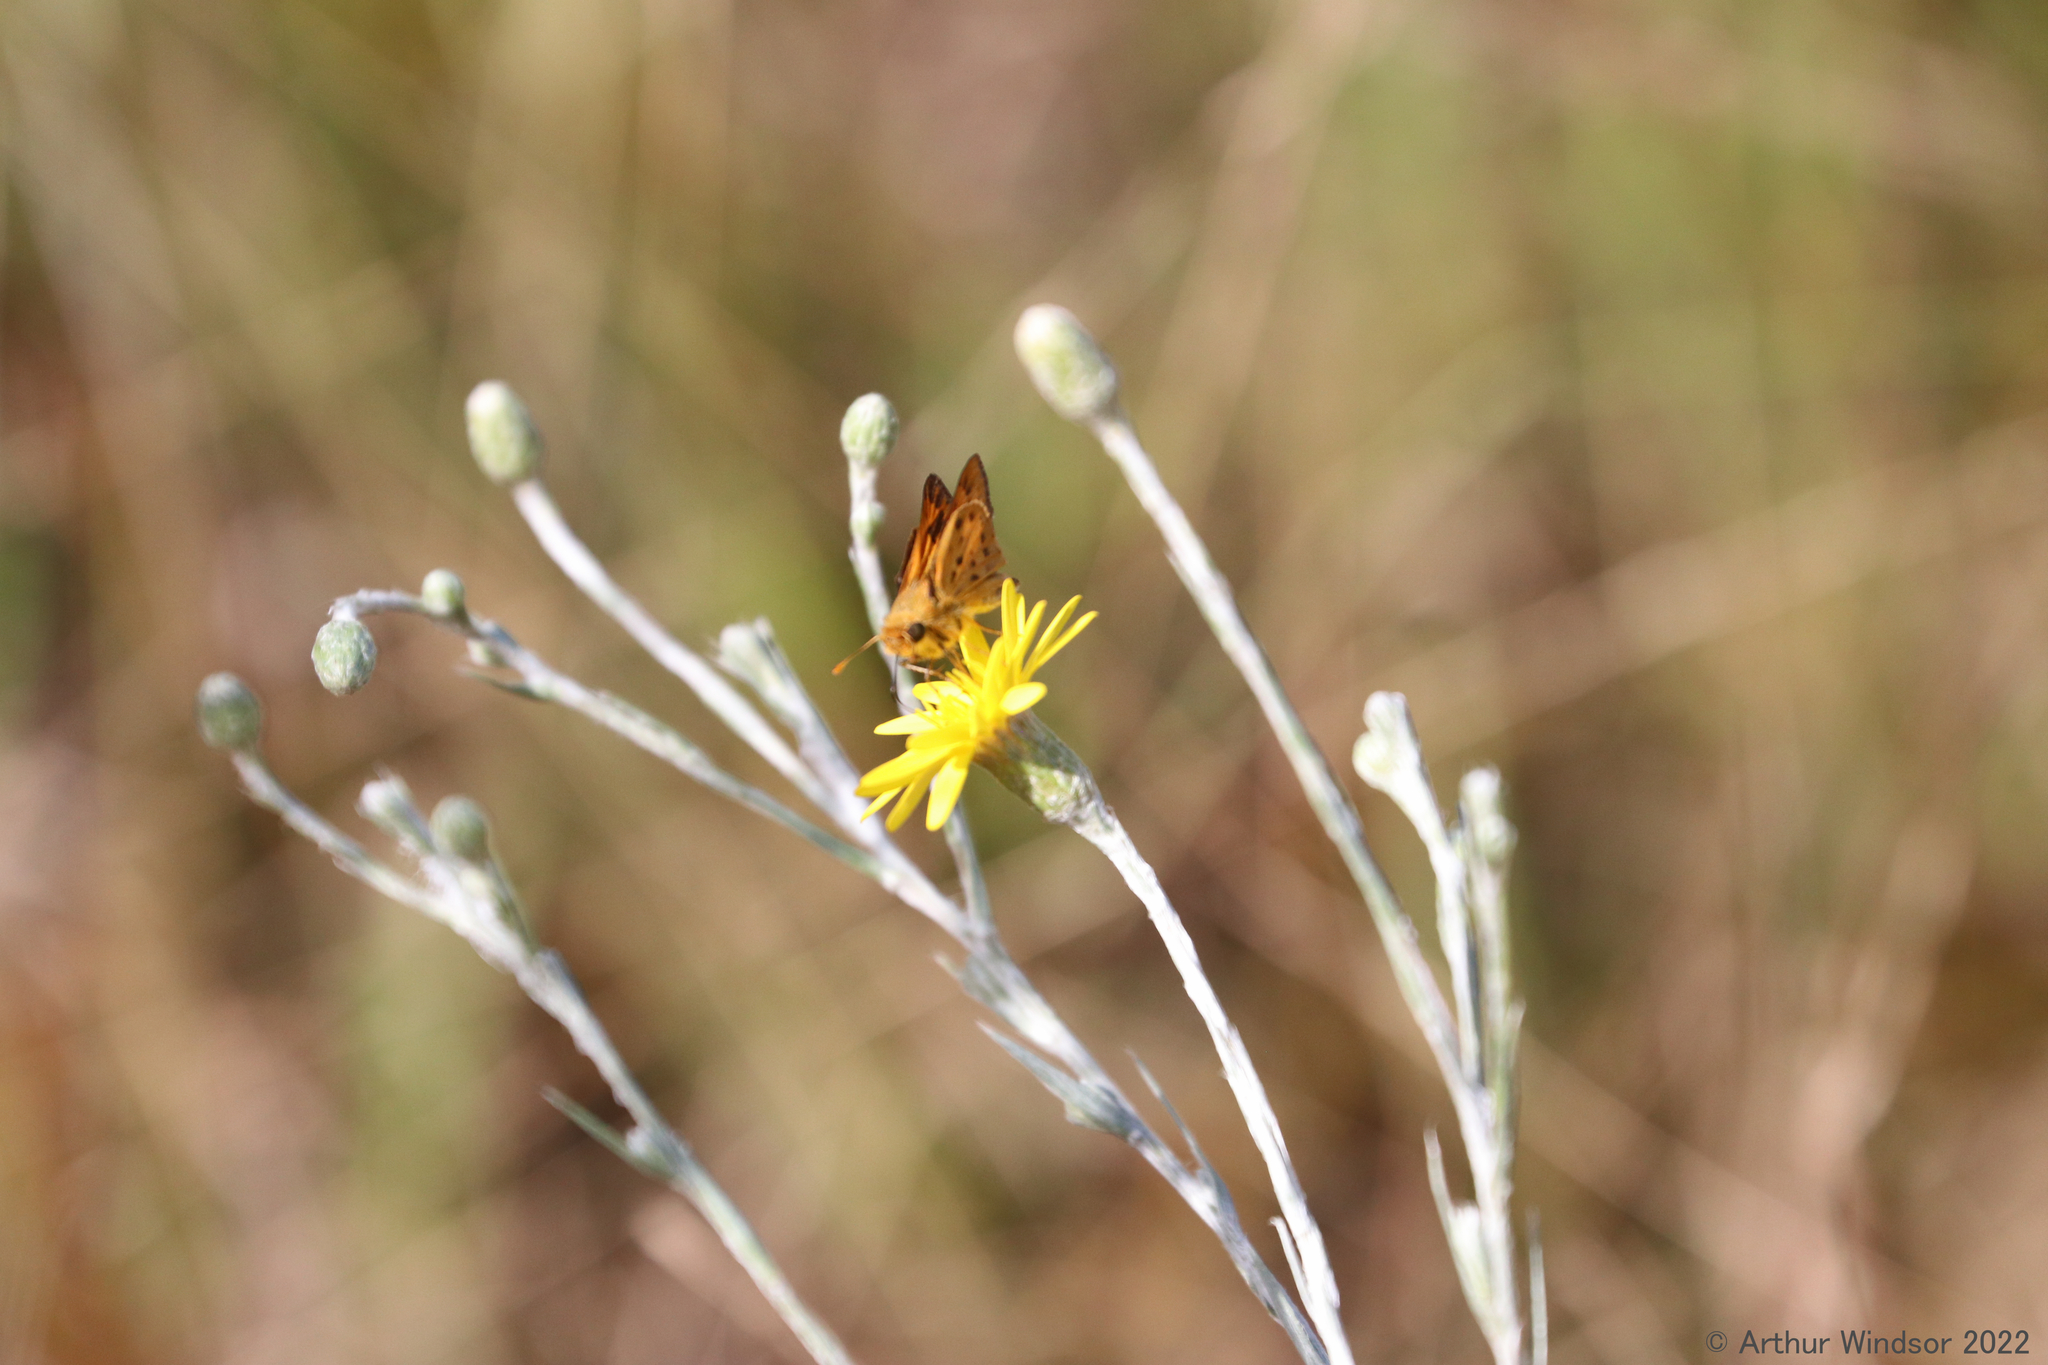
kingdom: Animalia
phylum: Arthropoda
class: Insecta
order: Lepidoptera
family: Hesperiidae
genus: Hylephila
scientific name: Hylephila phyleus
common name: Fiery skipper
